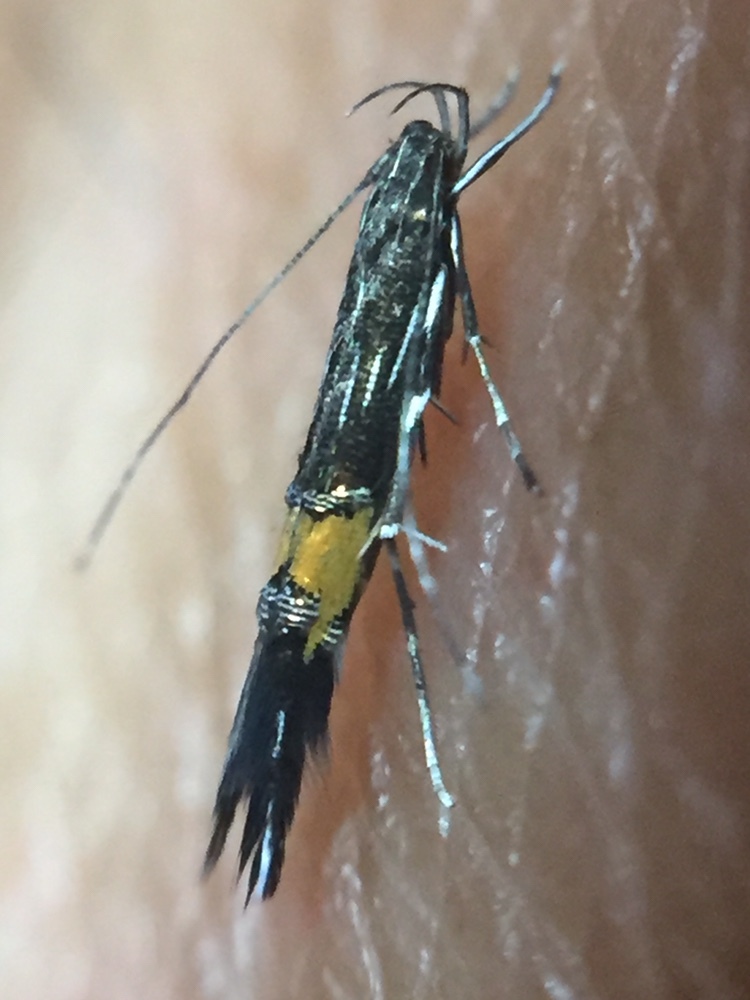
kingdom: Animalia
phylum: Arthropoda
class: Insecta
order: Lepidoptera
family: Cosmopterigidae
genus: Cosmopterix
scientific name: Cosmopterix attenuatella
